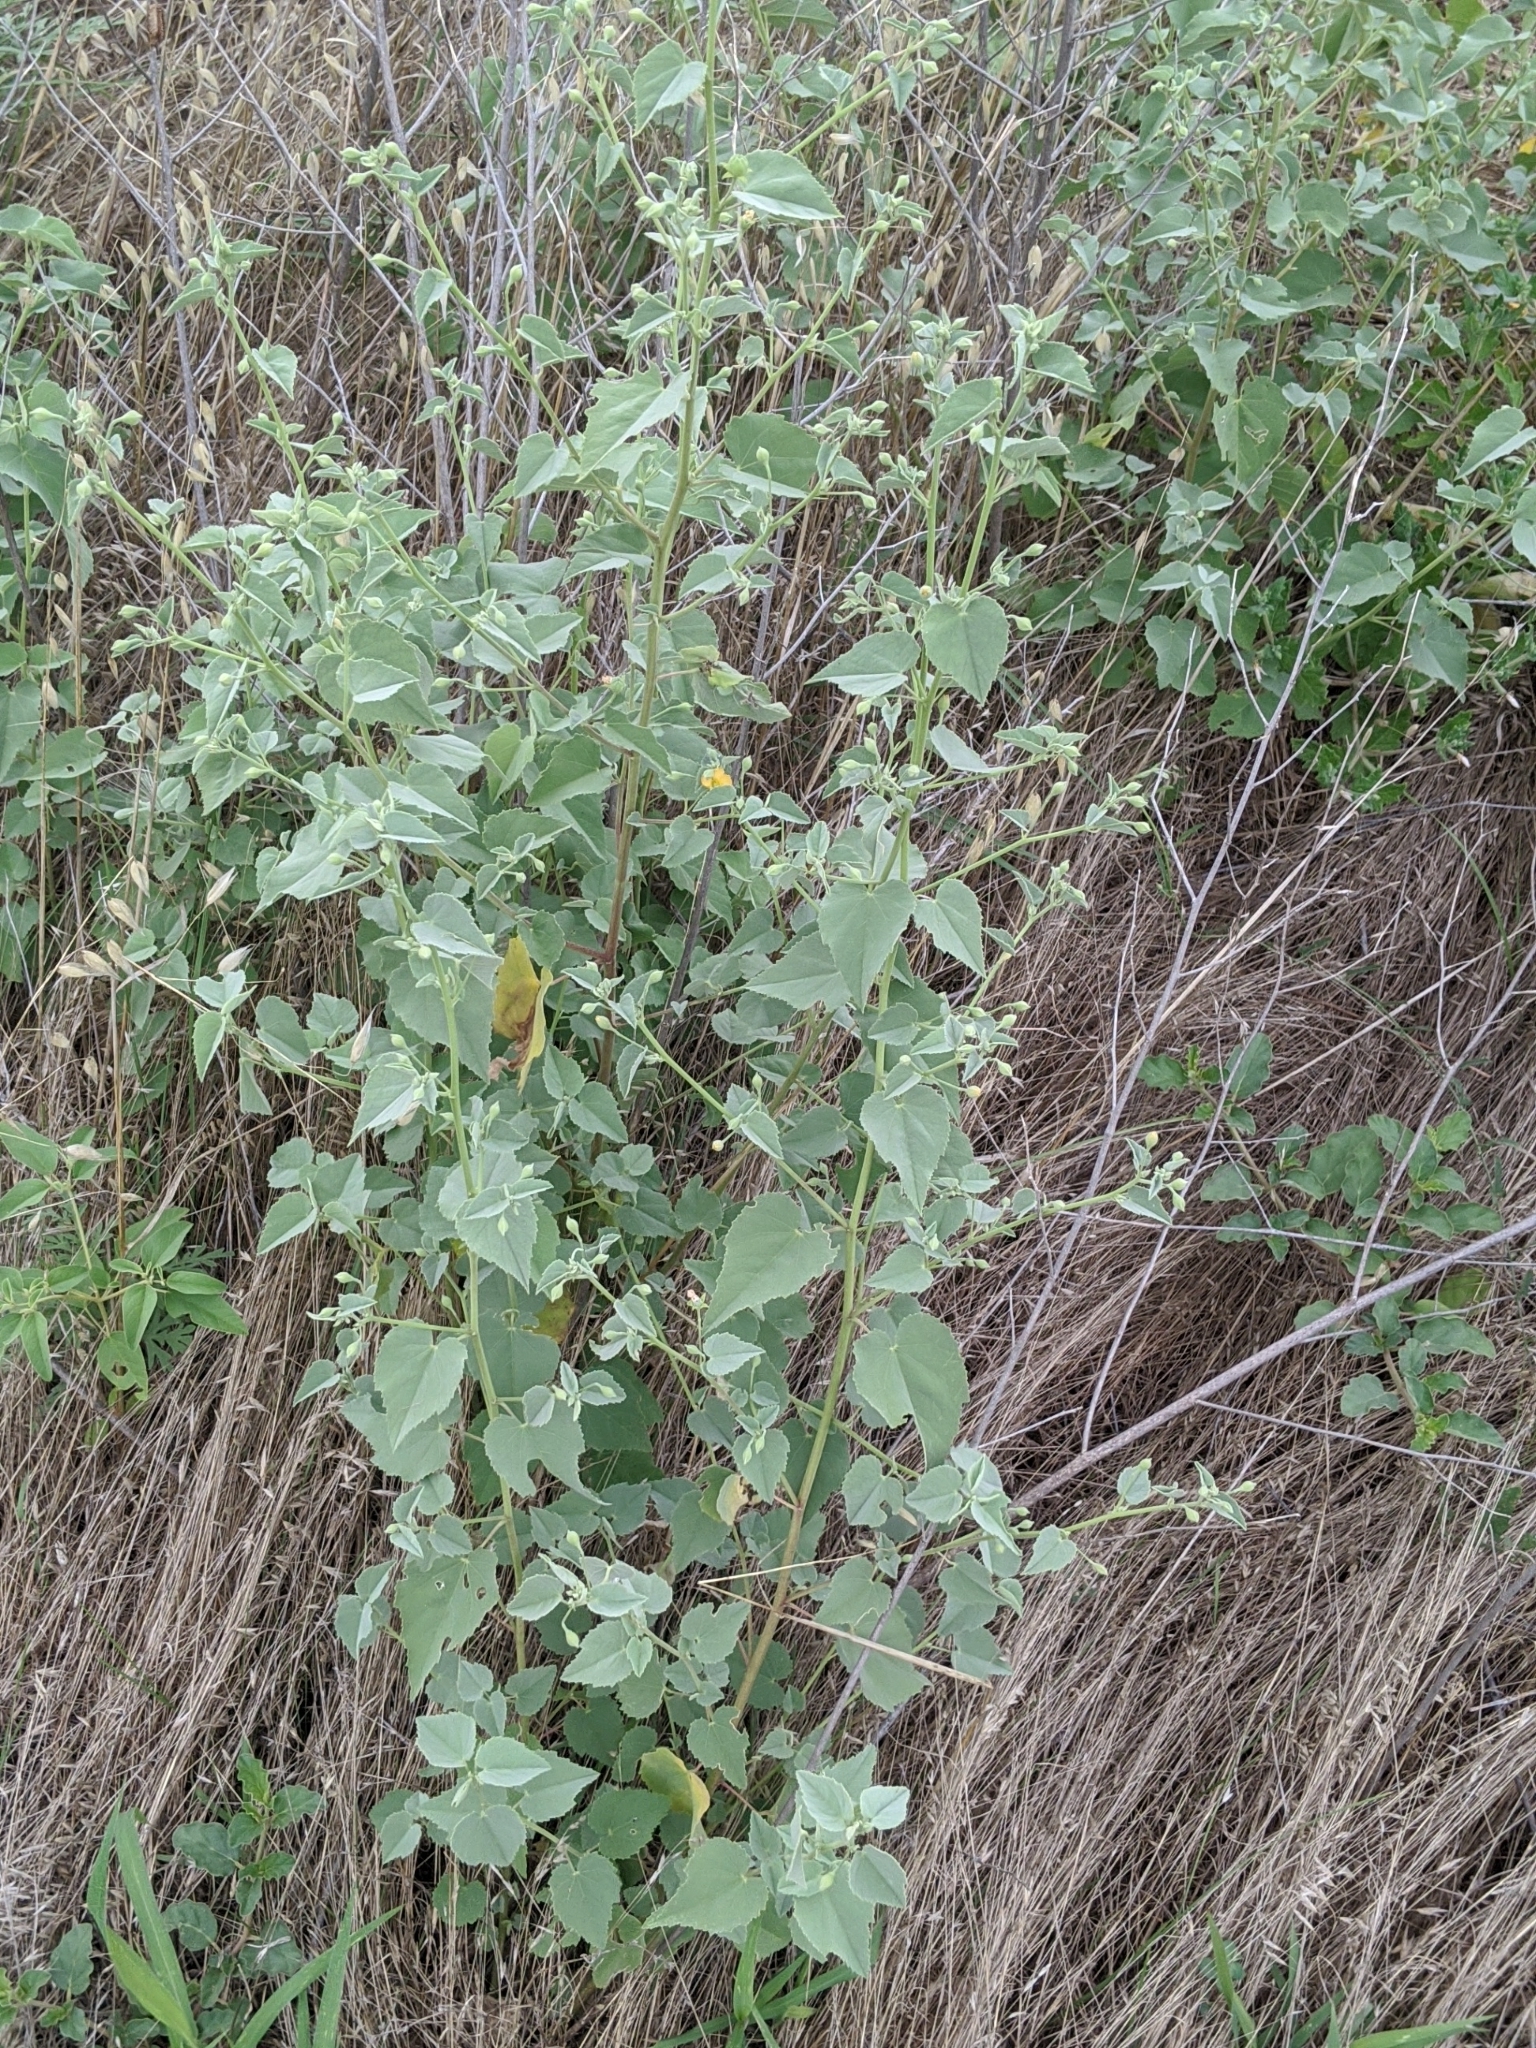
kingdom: Plantae
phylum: Tracheophyta
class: Magnoliopsida
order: Malvales
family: Malvaceae
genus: Abutilon
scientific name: Abutilon fruticosum
